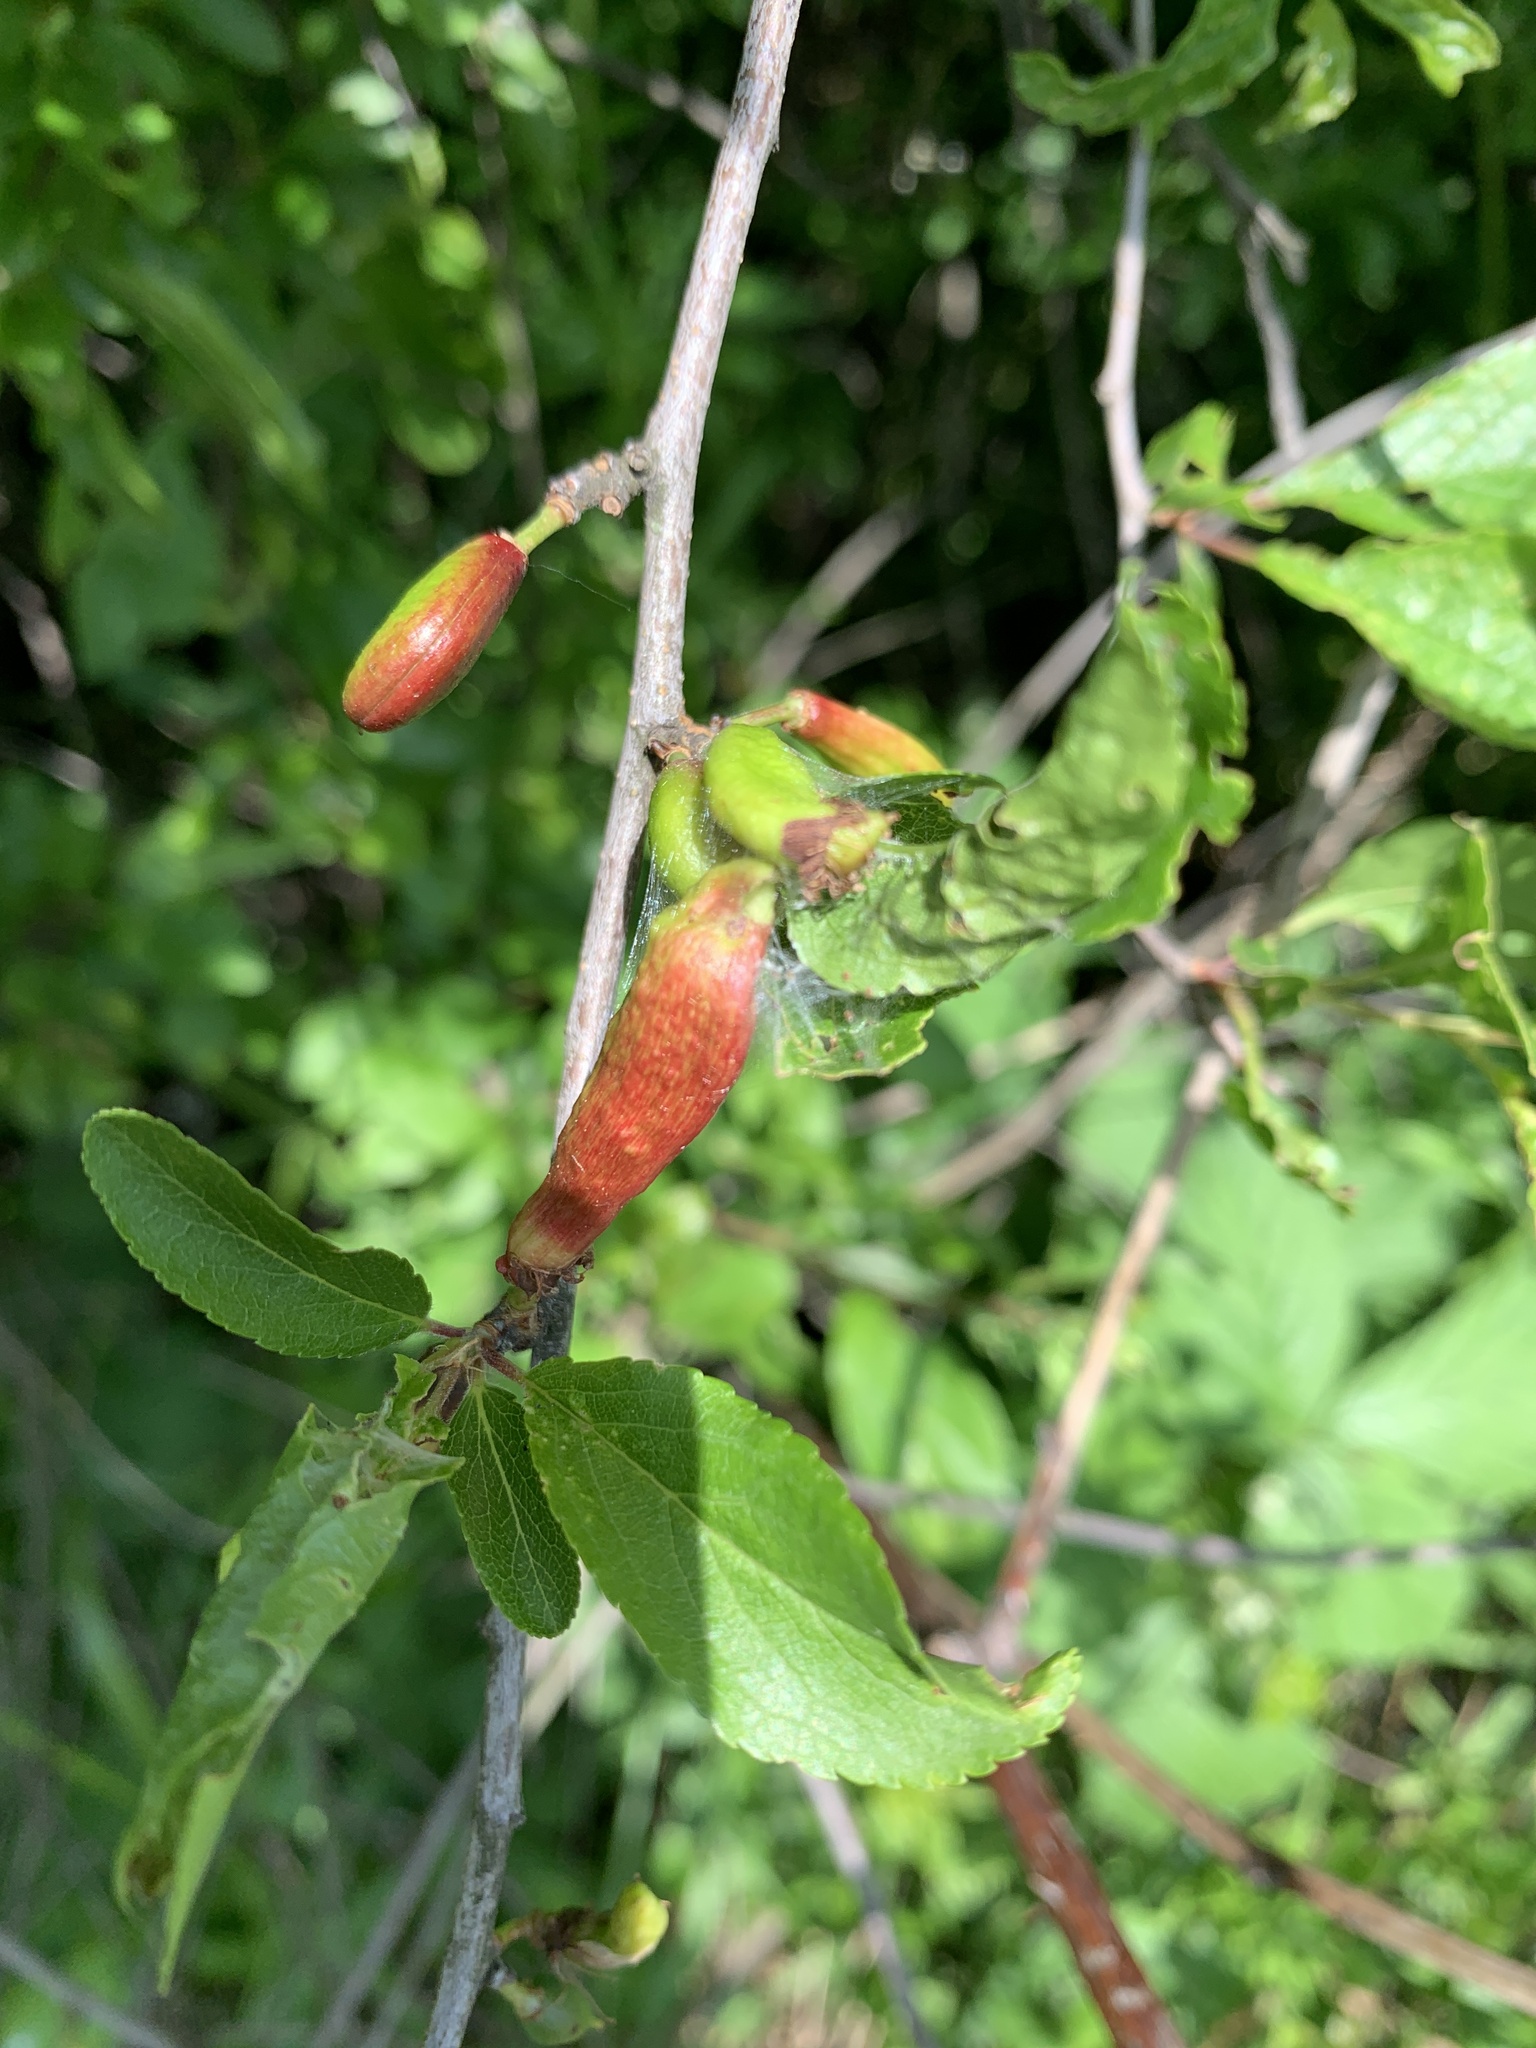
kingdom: Fungi
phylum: Ascomycota
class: Taphrinomycetes
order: Taphrinales
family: Taphrinaceae
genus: Taphrina
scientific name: Taphrina pruni
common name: Pocket plum
